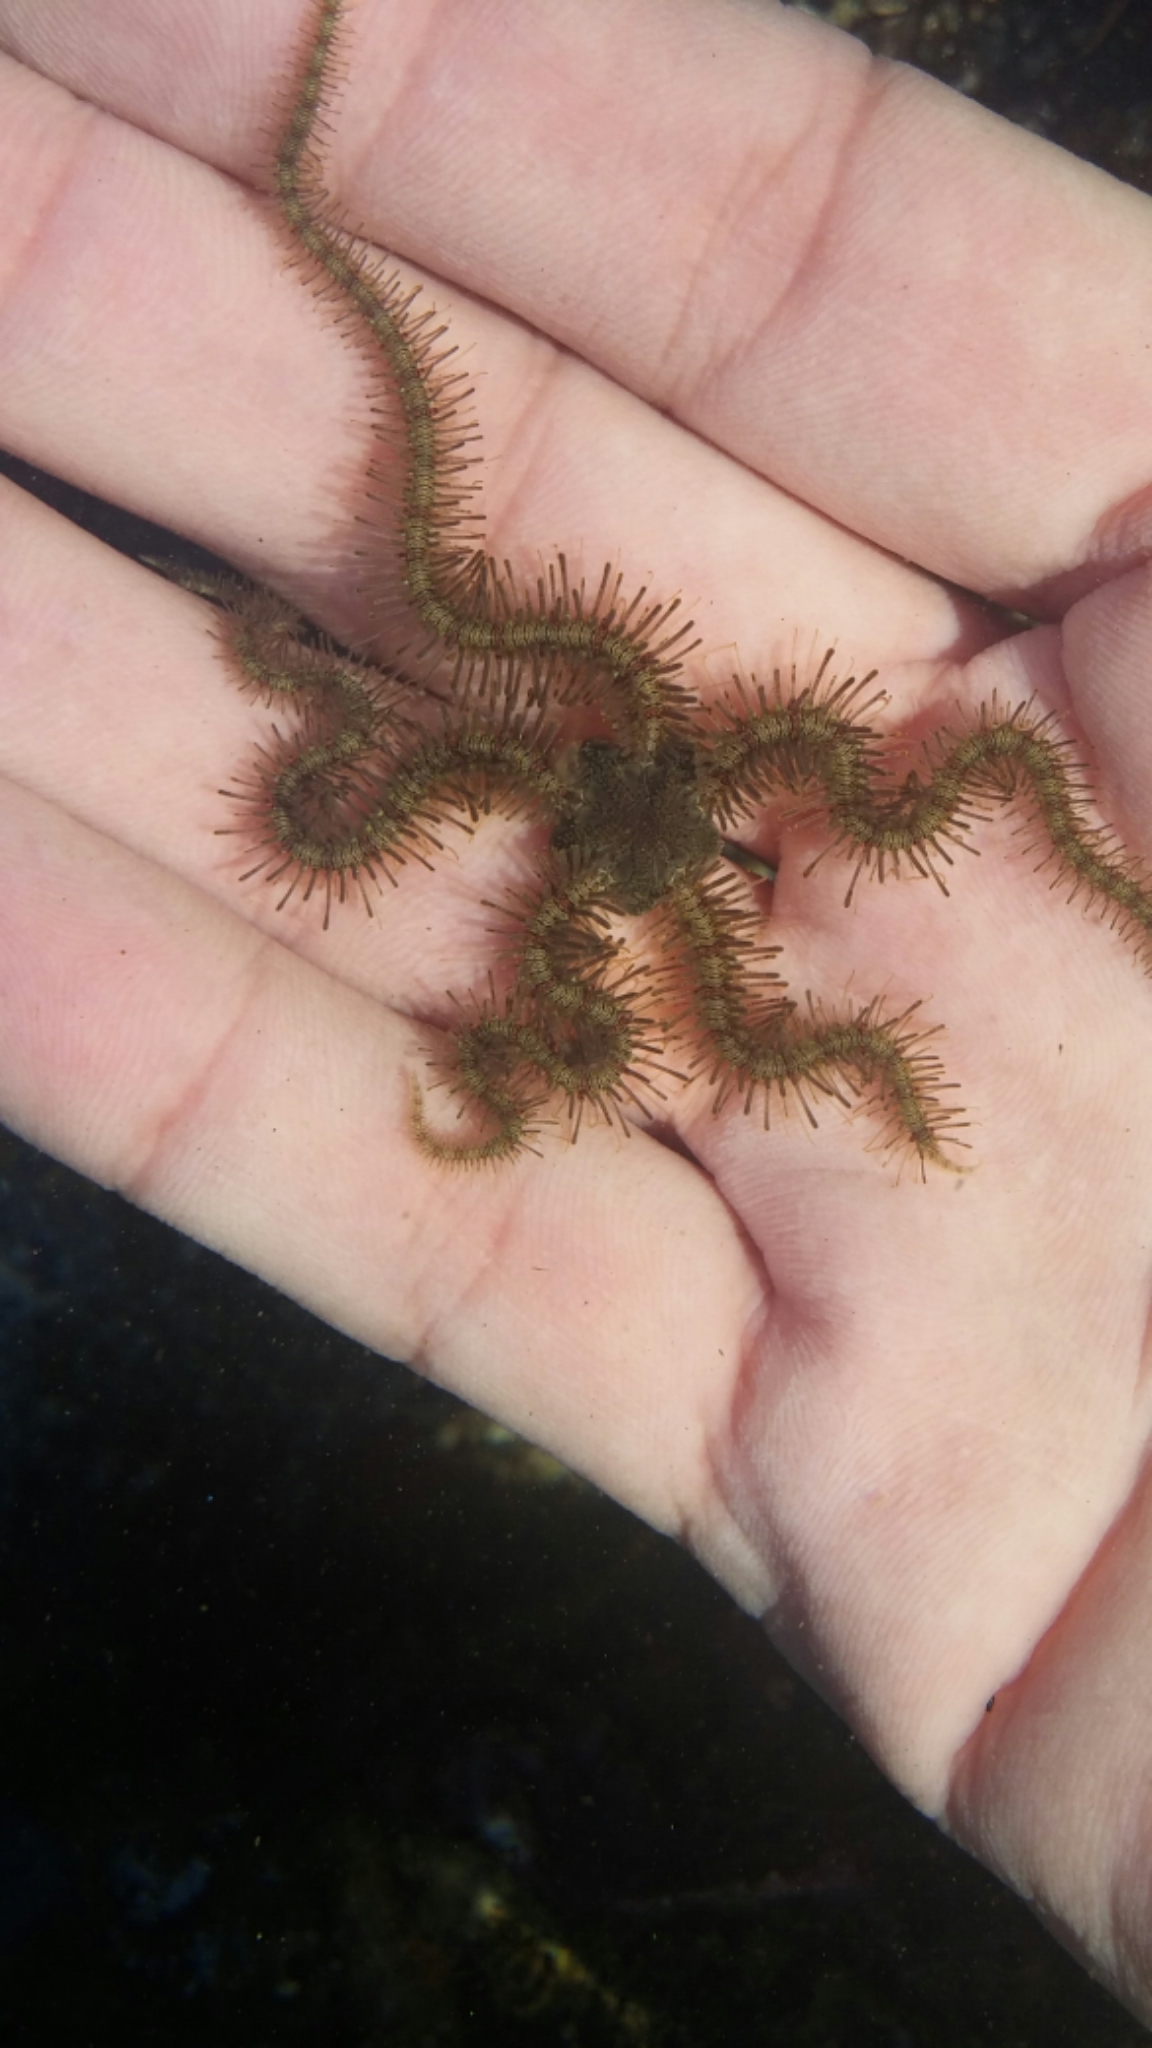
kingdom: Animalia
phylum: Echinodermata
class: Ophiuroidea
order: Amphilepidida
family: Ophiotrichidae
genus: Ophiothrix
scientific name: Ophiothrix rudis
